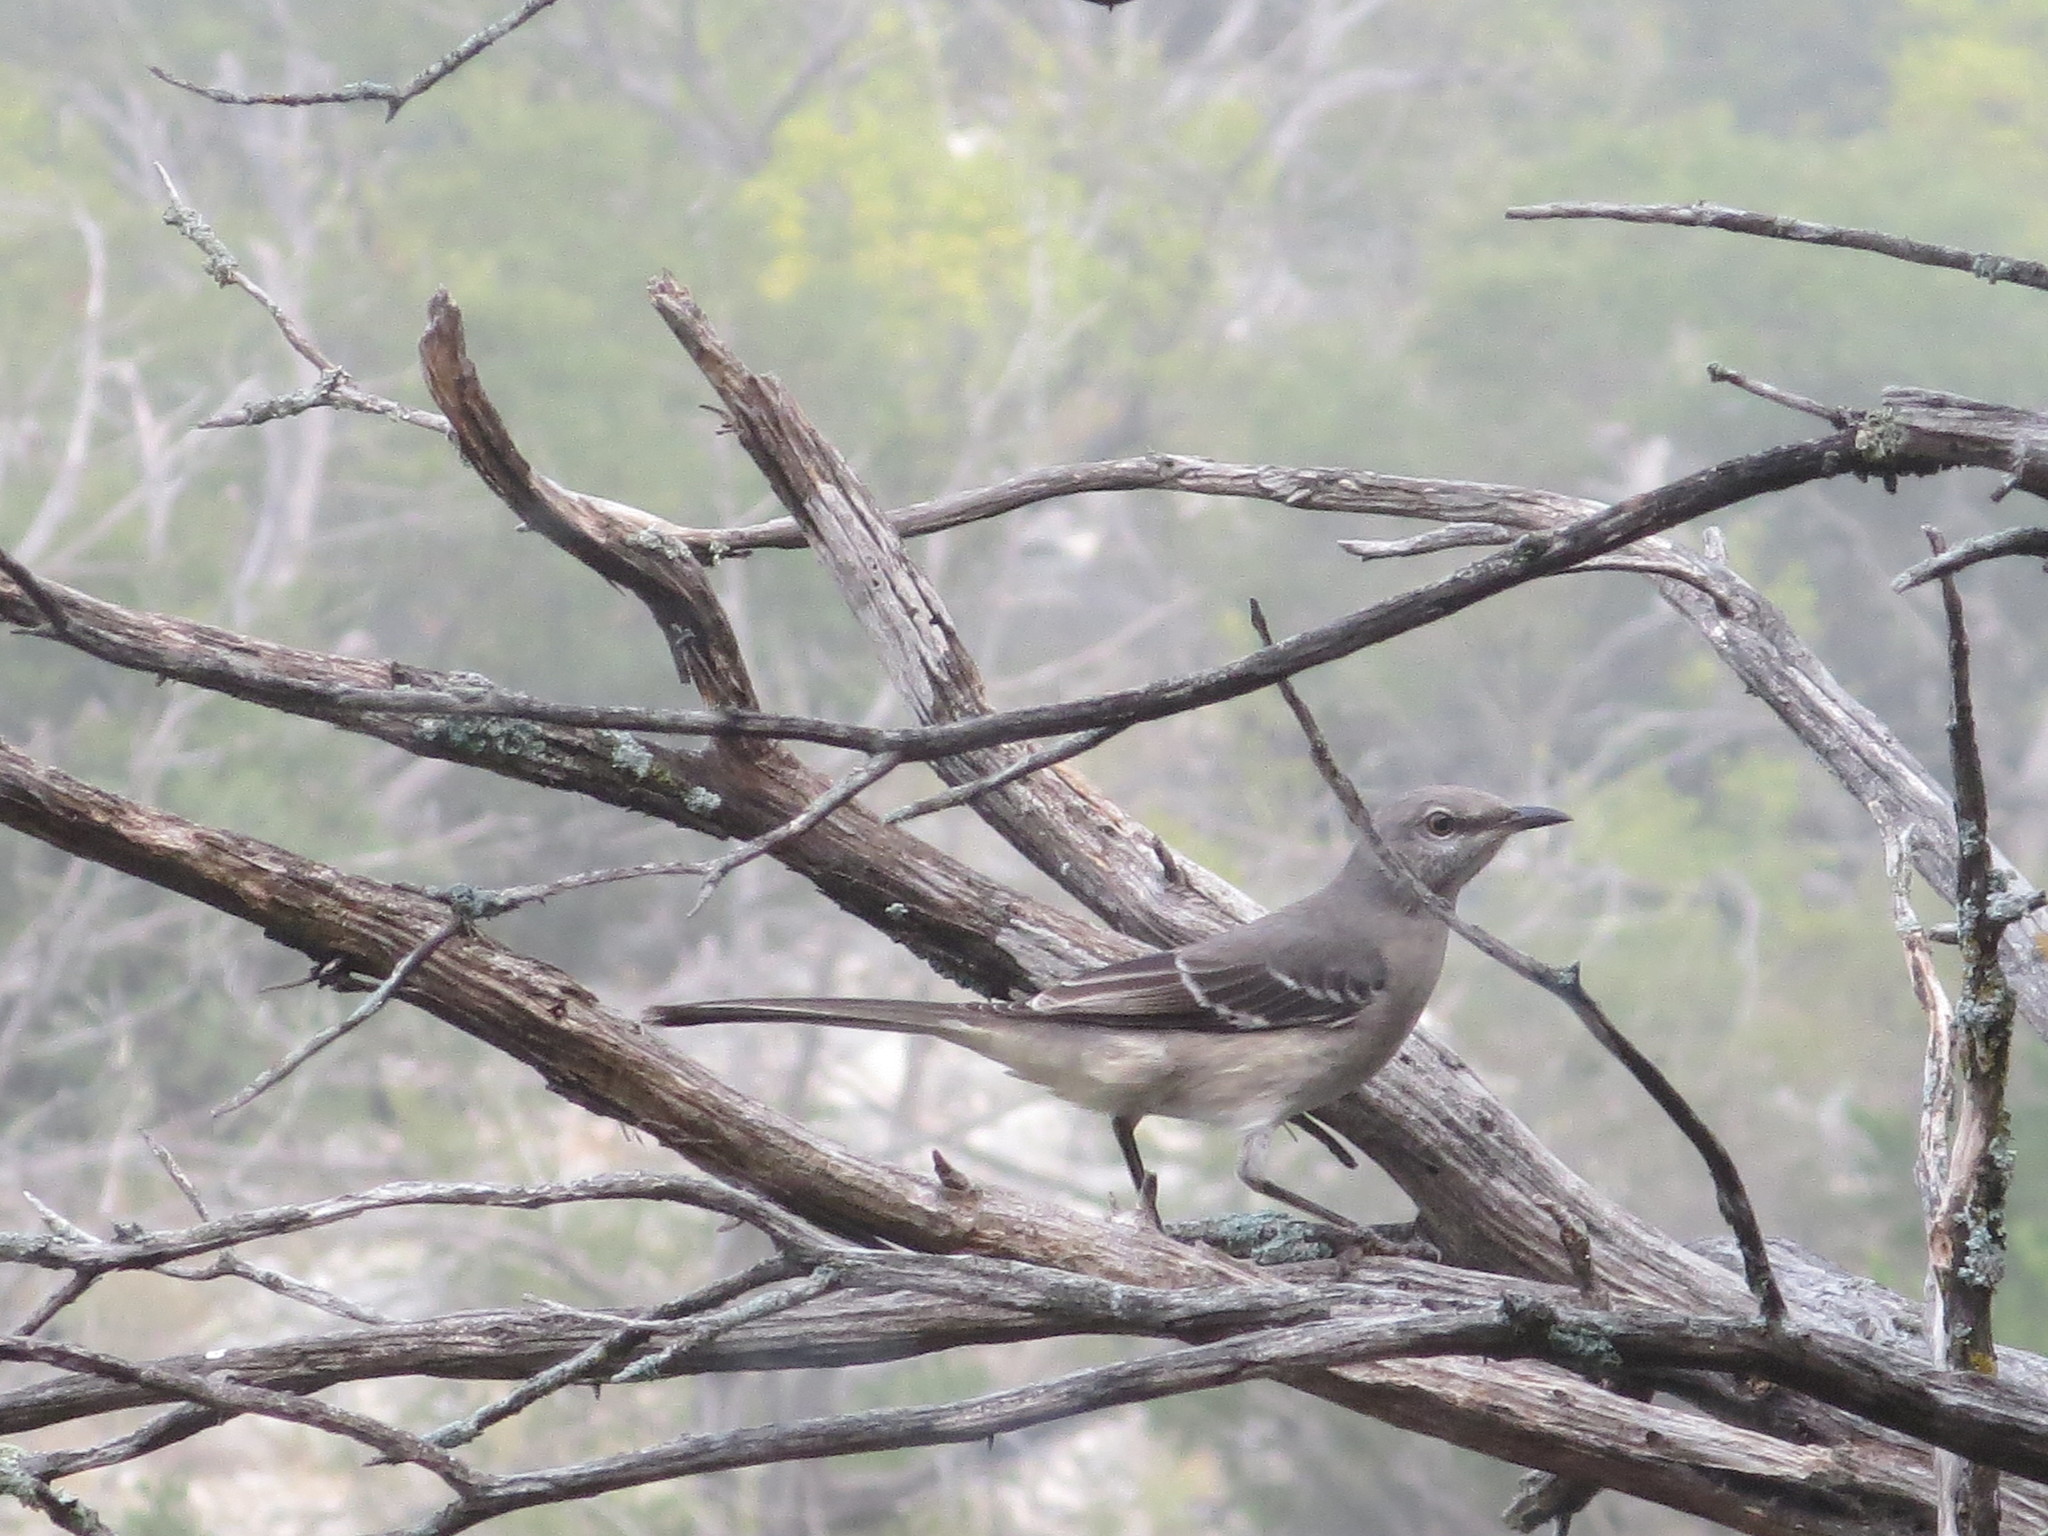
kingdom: Animalia
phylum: Chordata
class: Aves
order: Passeriformes
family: Mimidae
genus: Mimus
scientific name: Mimus polyglottos
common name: Northern mockingbird
